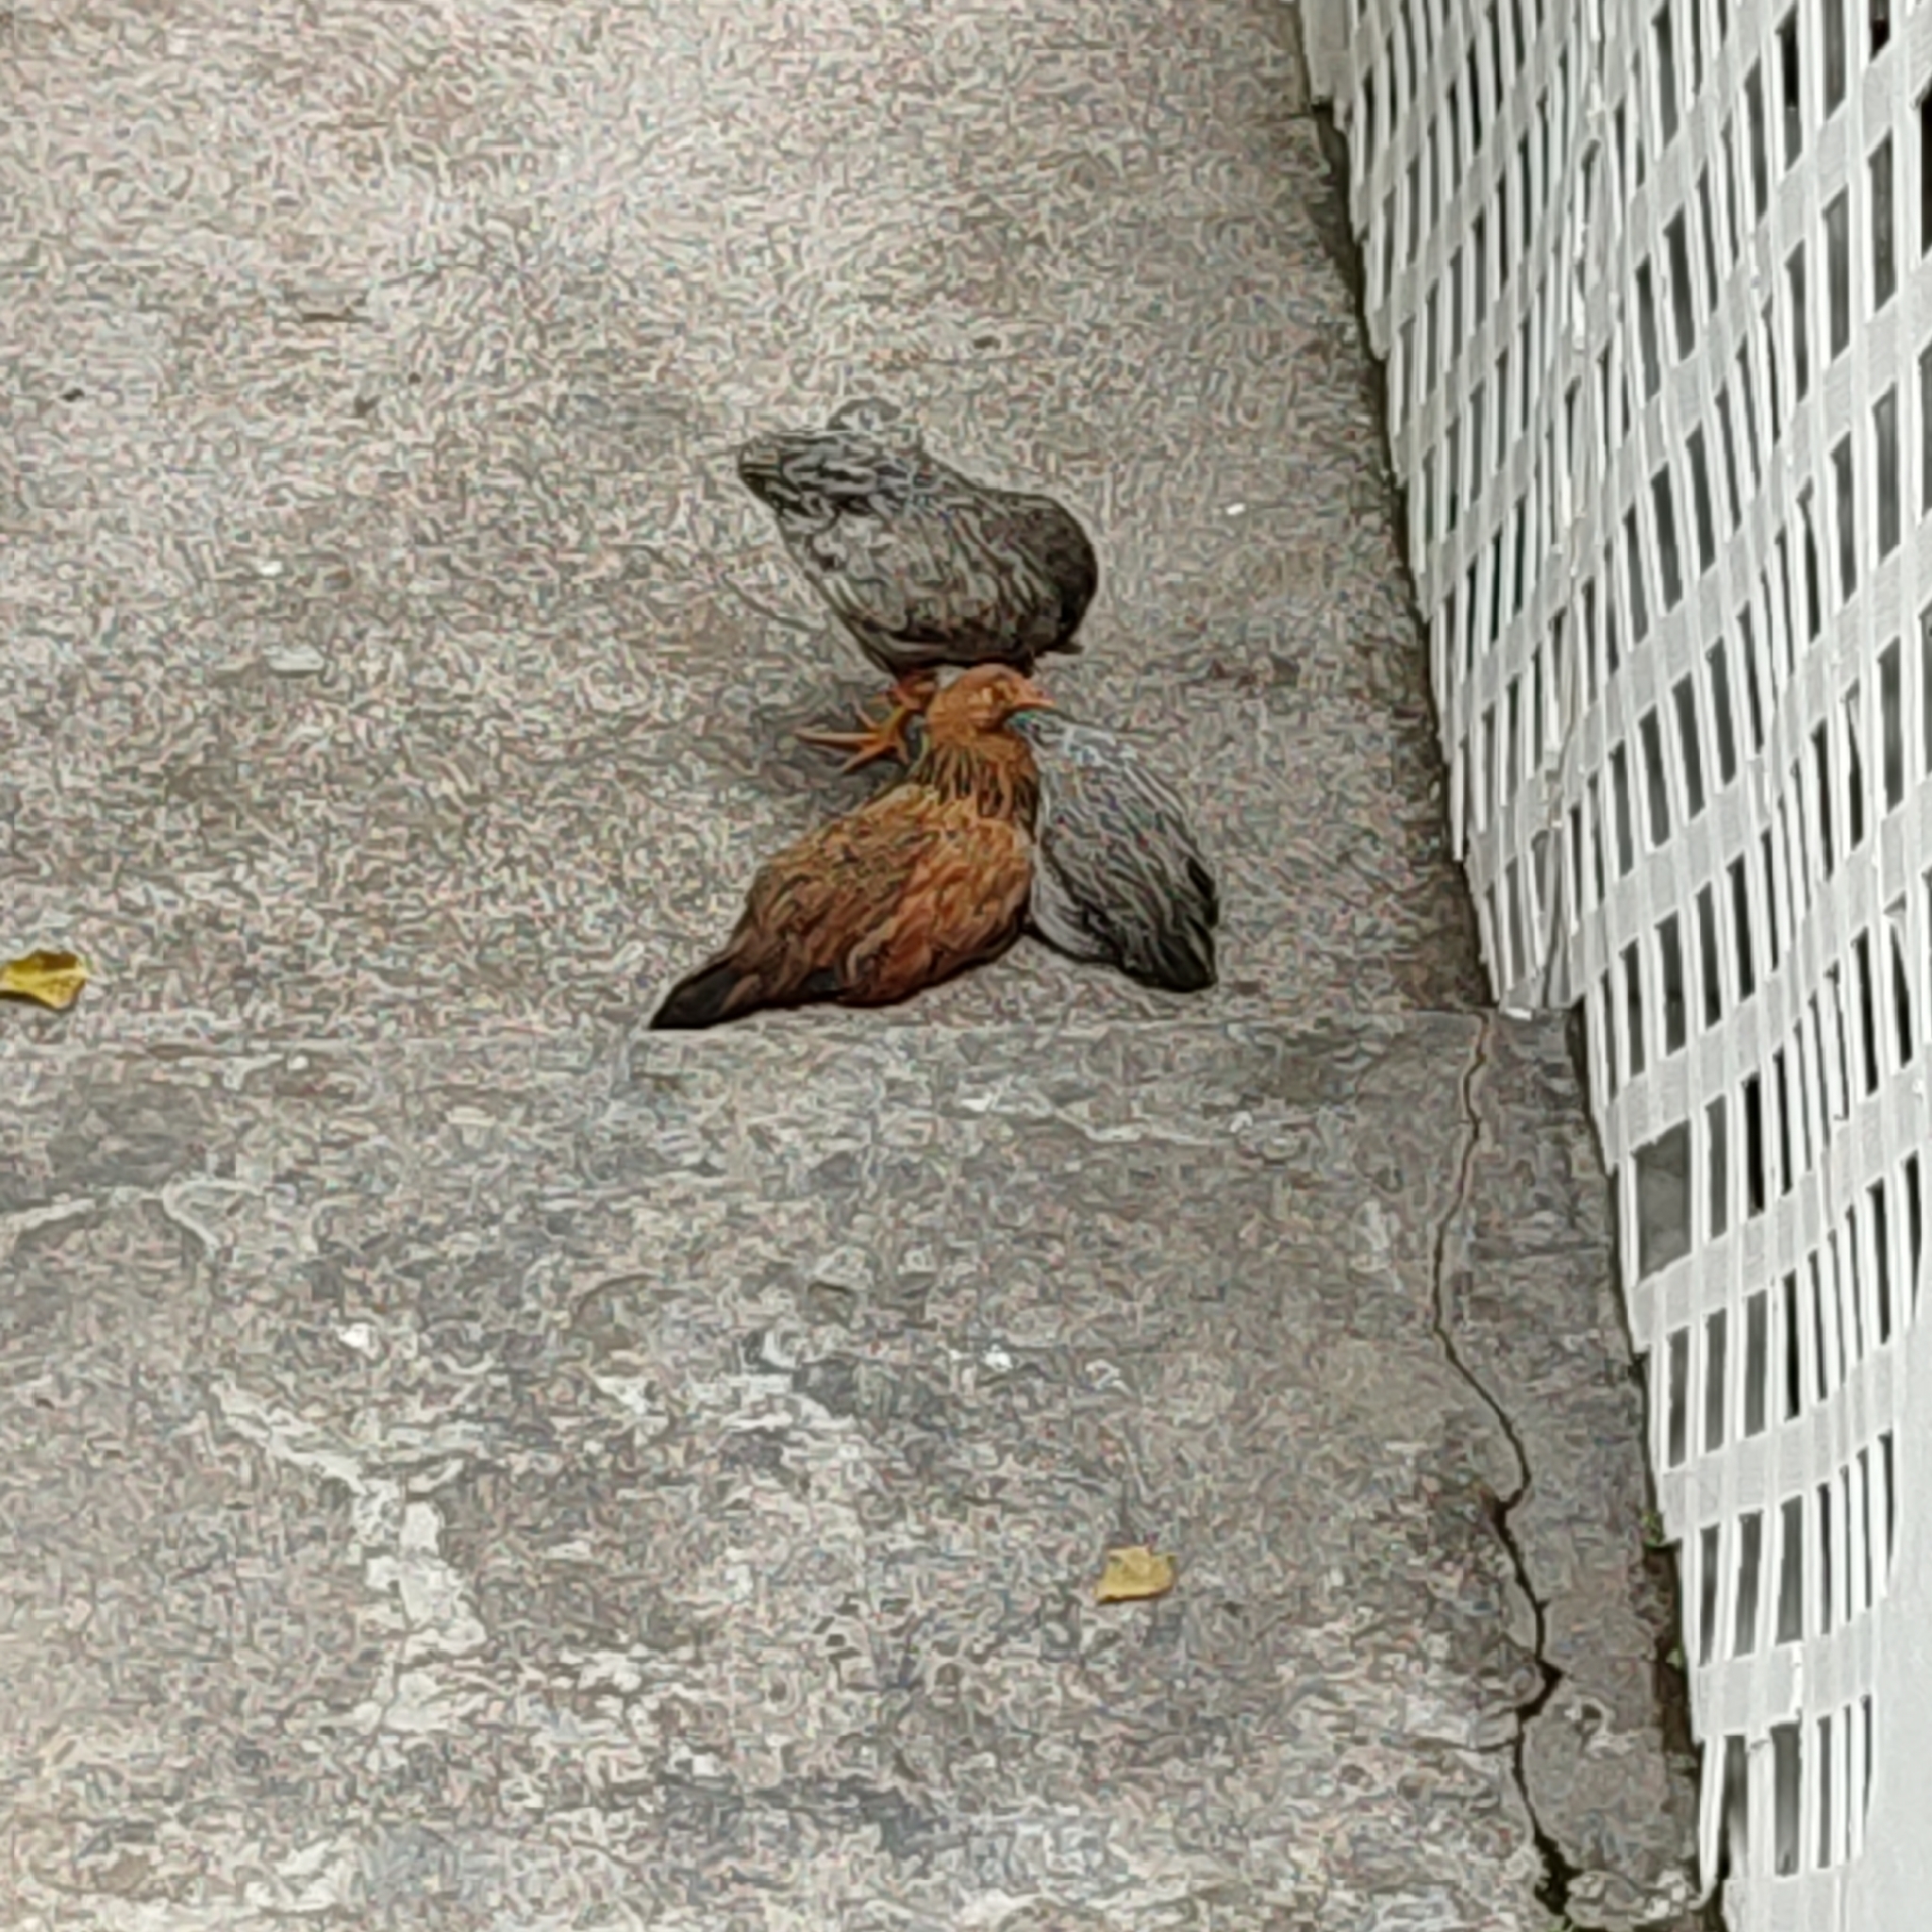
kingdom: Animalia
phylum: Chordata
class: Aves
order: Galliformes
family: Phasianidae
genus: Gallus
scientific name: Gallus gallus
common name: Red junglefowl
